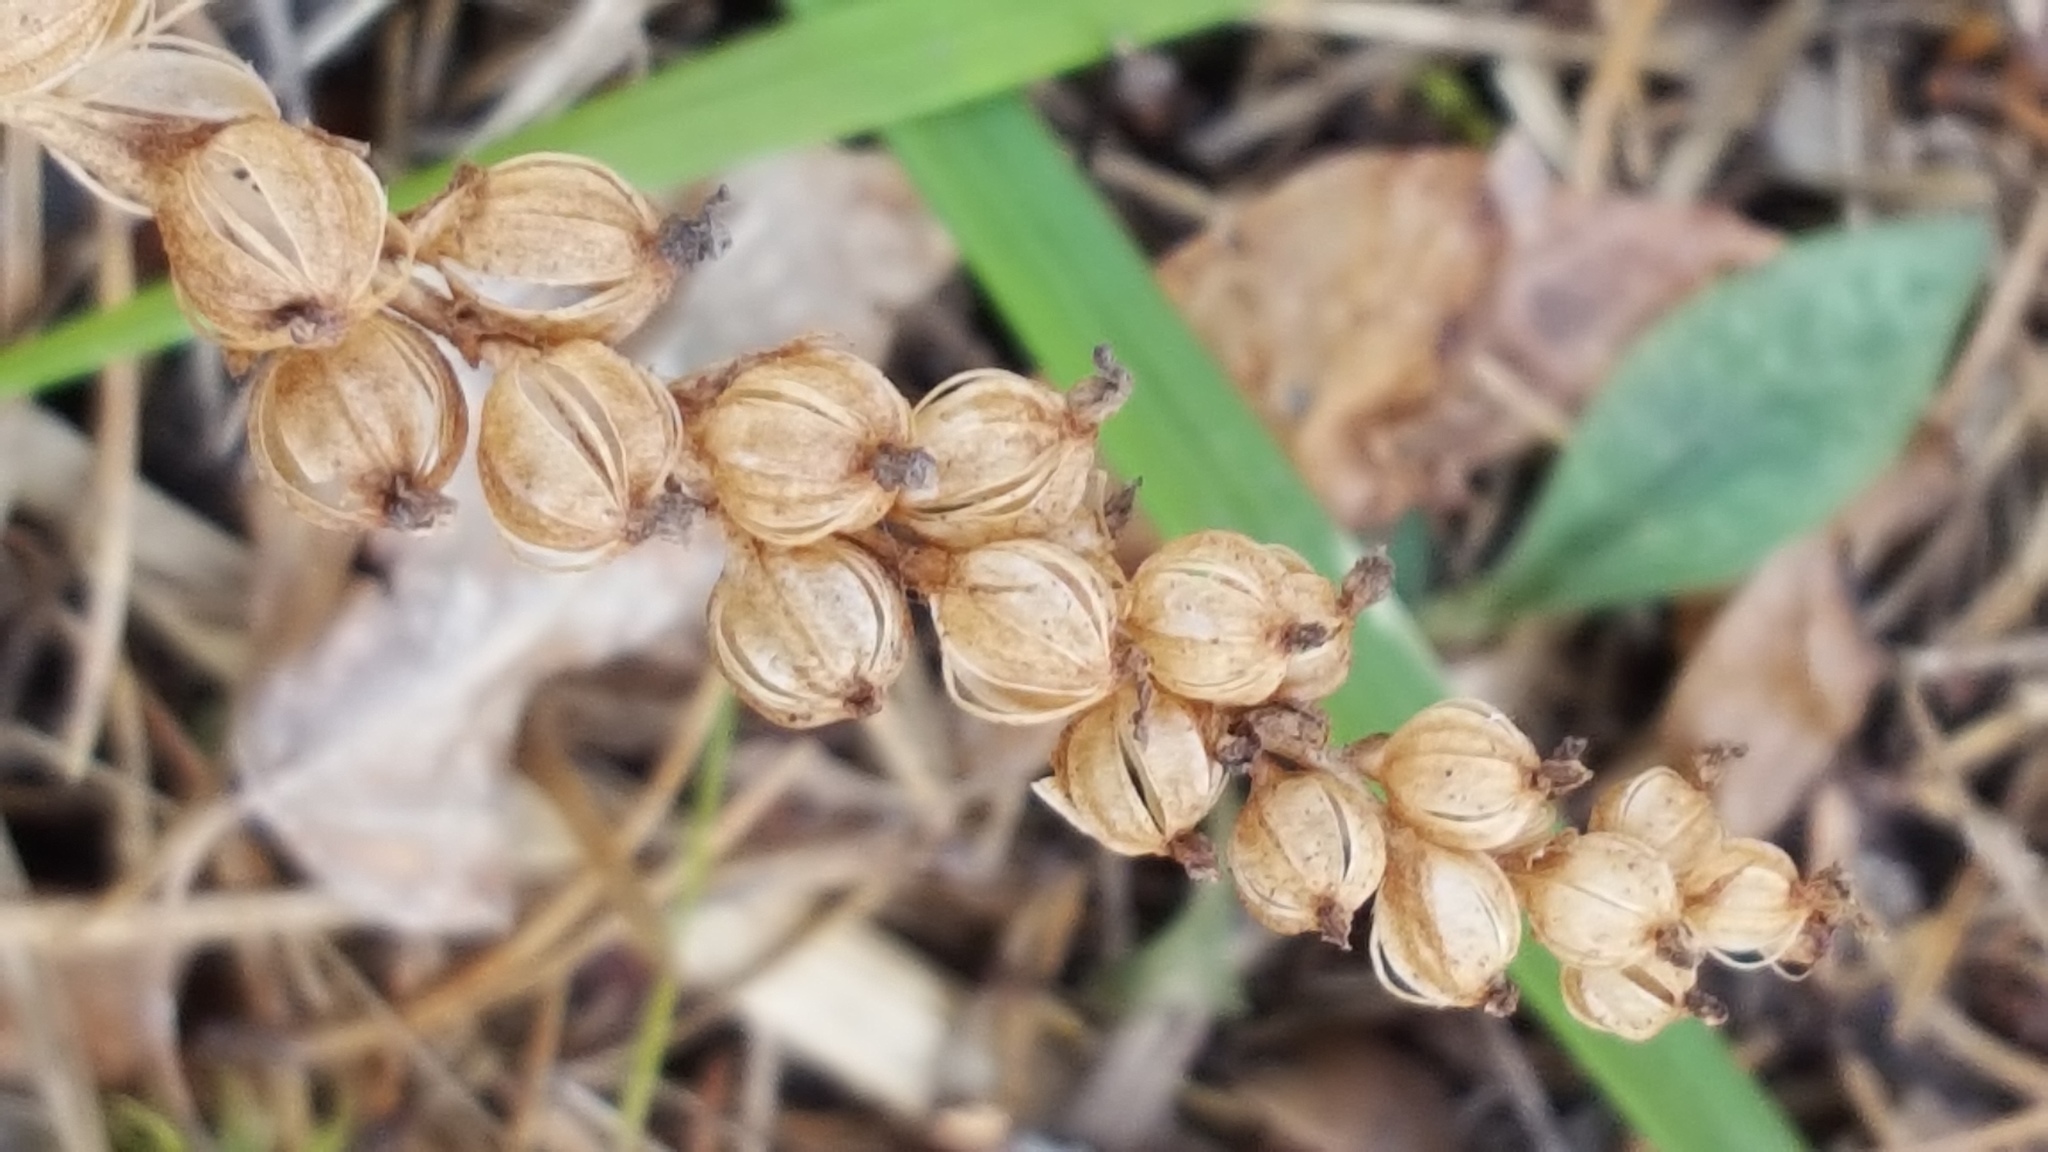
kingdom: Plantae
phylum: Tracheophyta
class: Liliopsida
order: Asparagales
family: Orchidaceae
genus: Goodyera
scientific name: Goodyera tesselata
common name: Checkered rattlesnake-plantain
